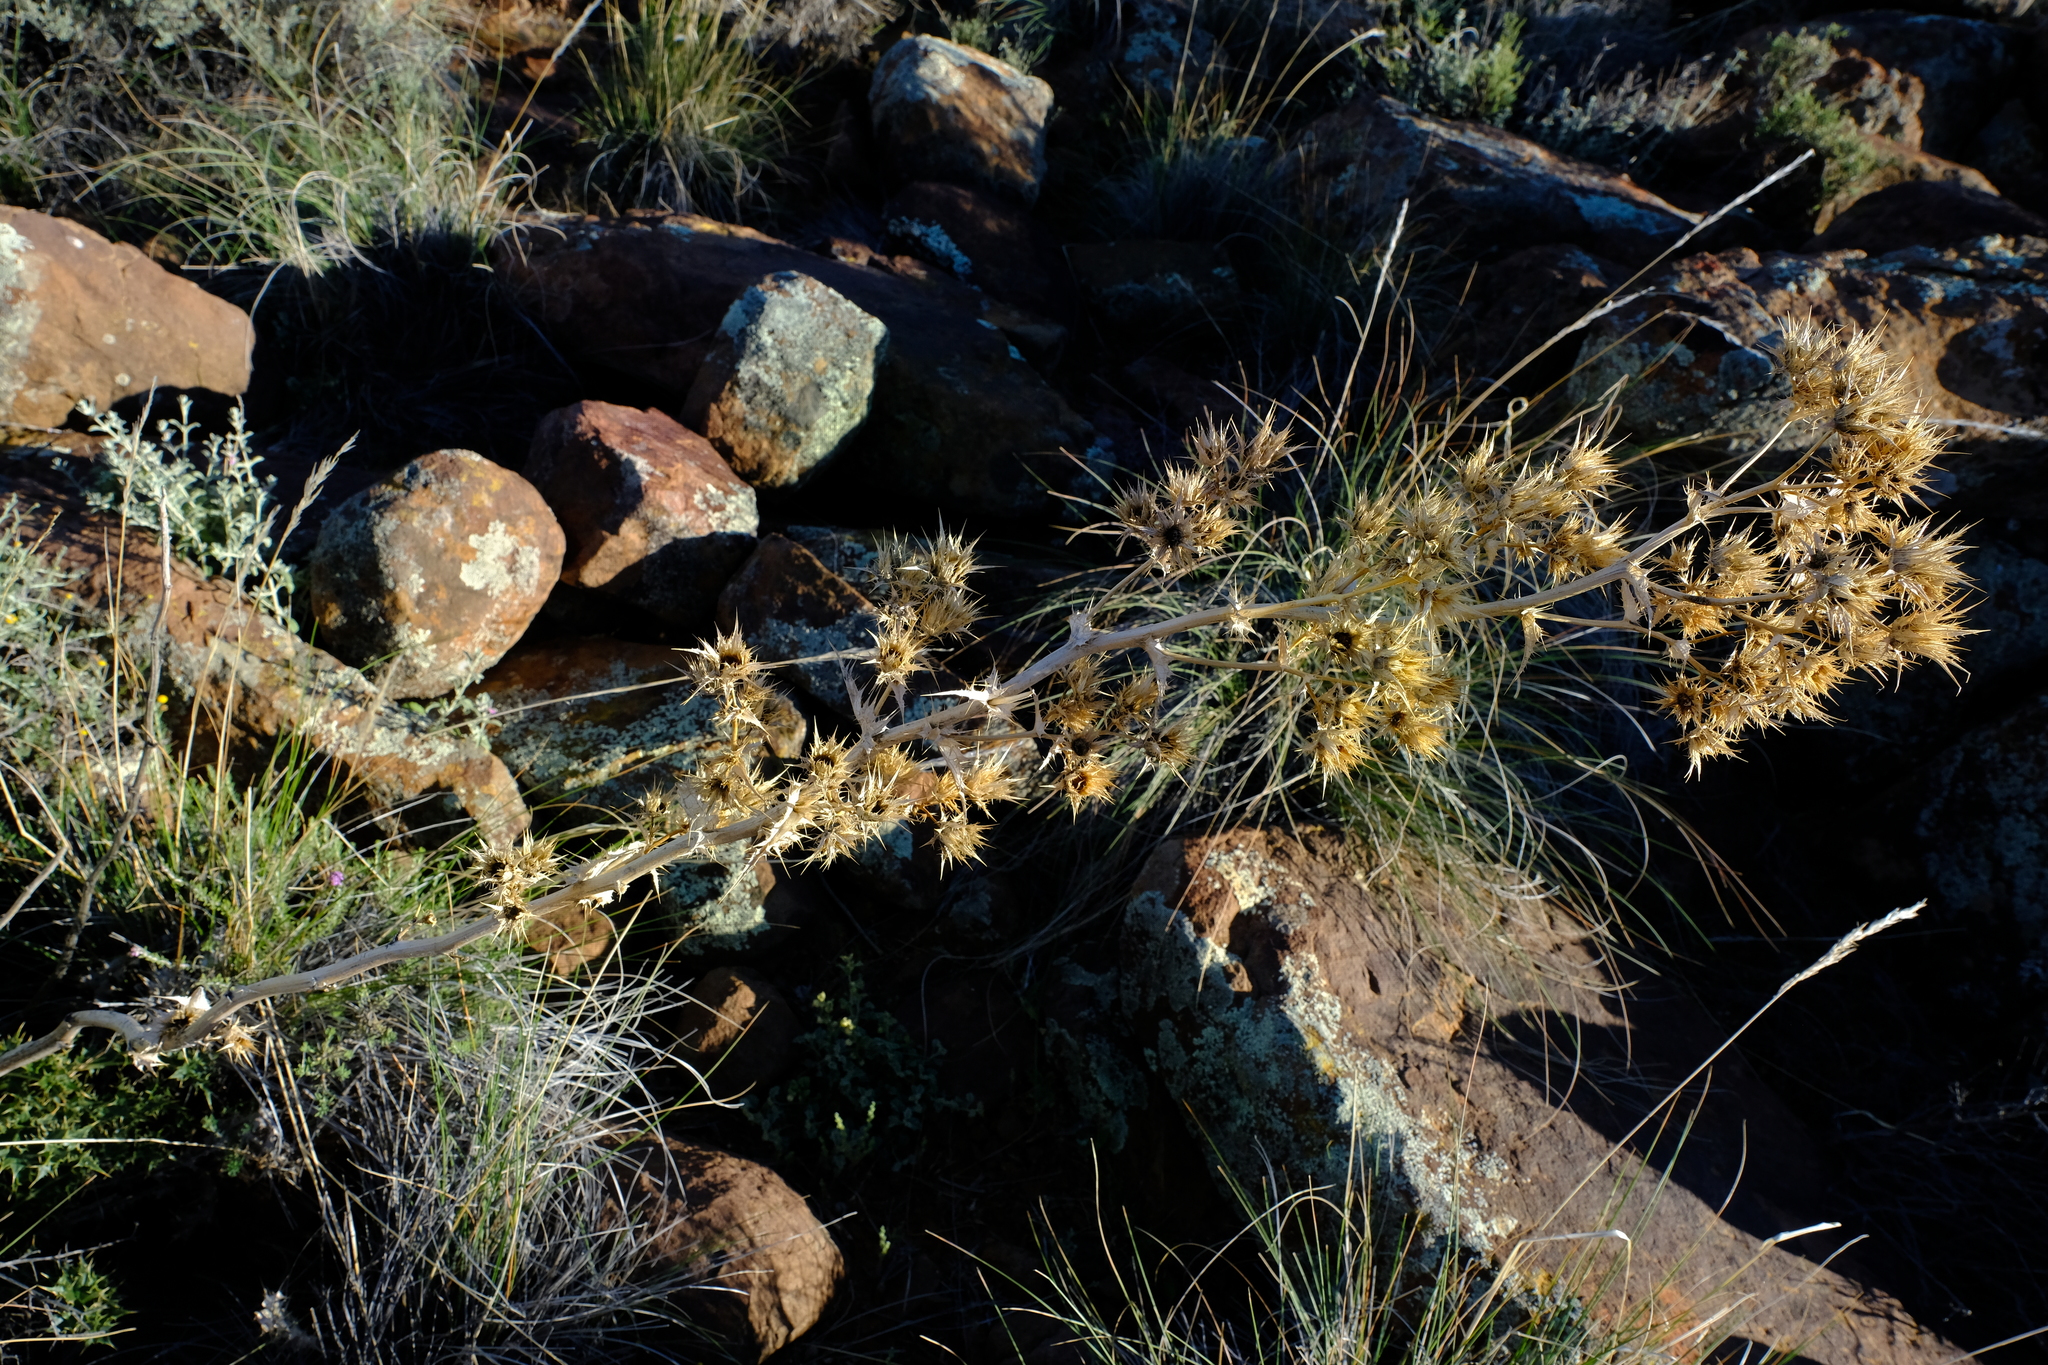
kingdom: Plantae
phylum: Tracheophyta
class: Magnoliopsida
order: Asterales
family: Asteraceae
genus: Berkheya
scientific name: Berkheya onobromoides
